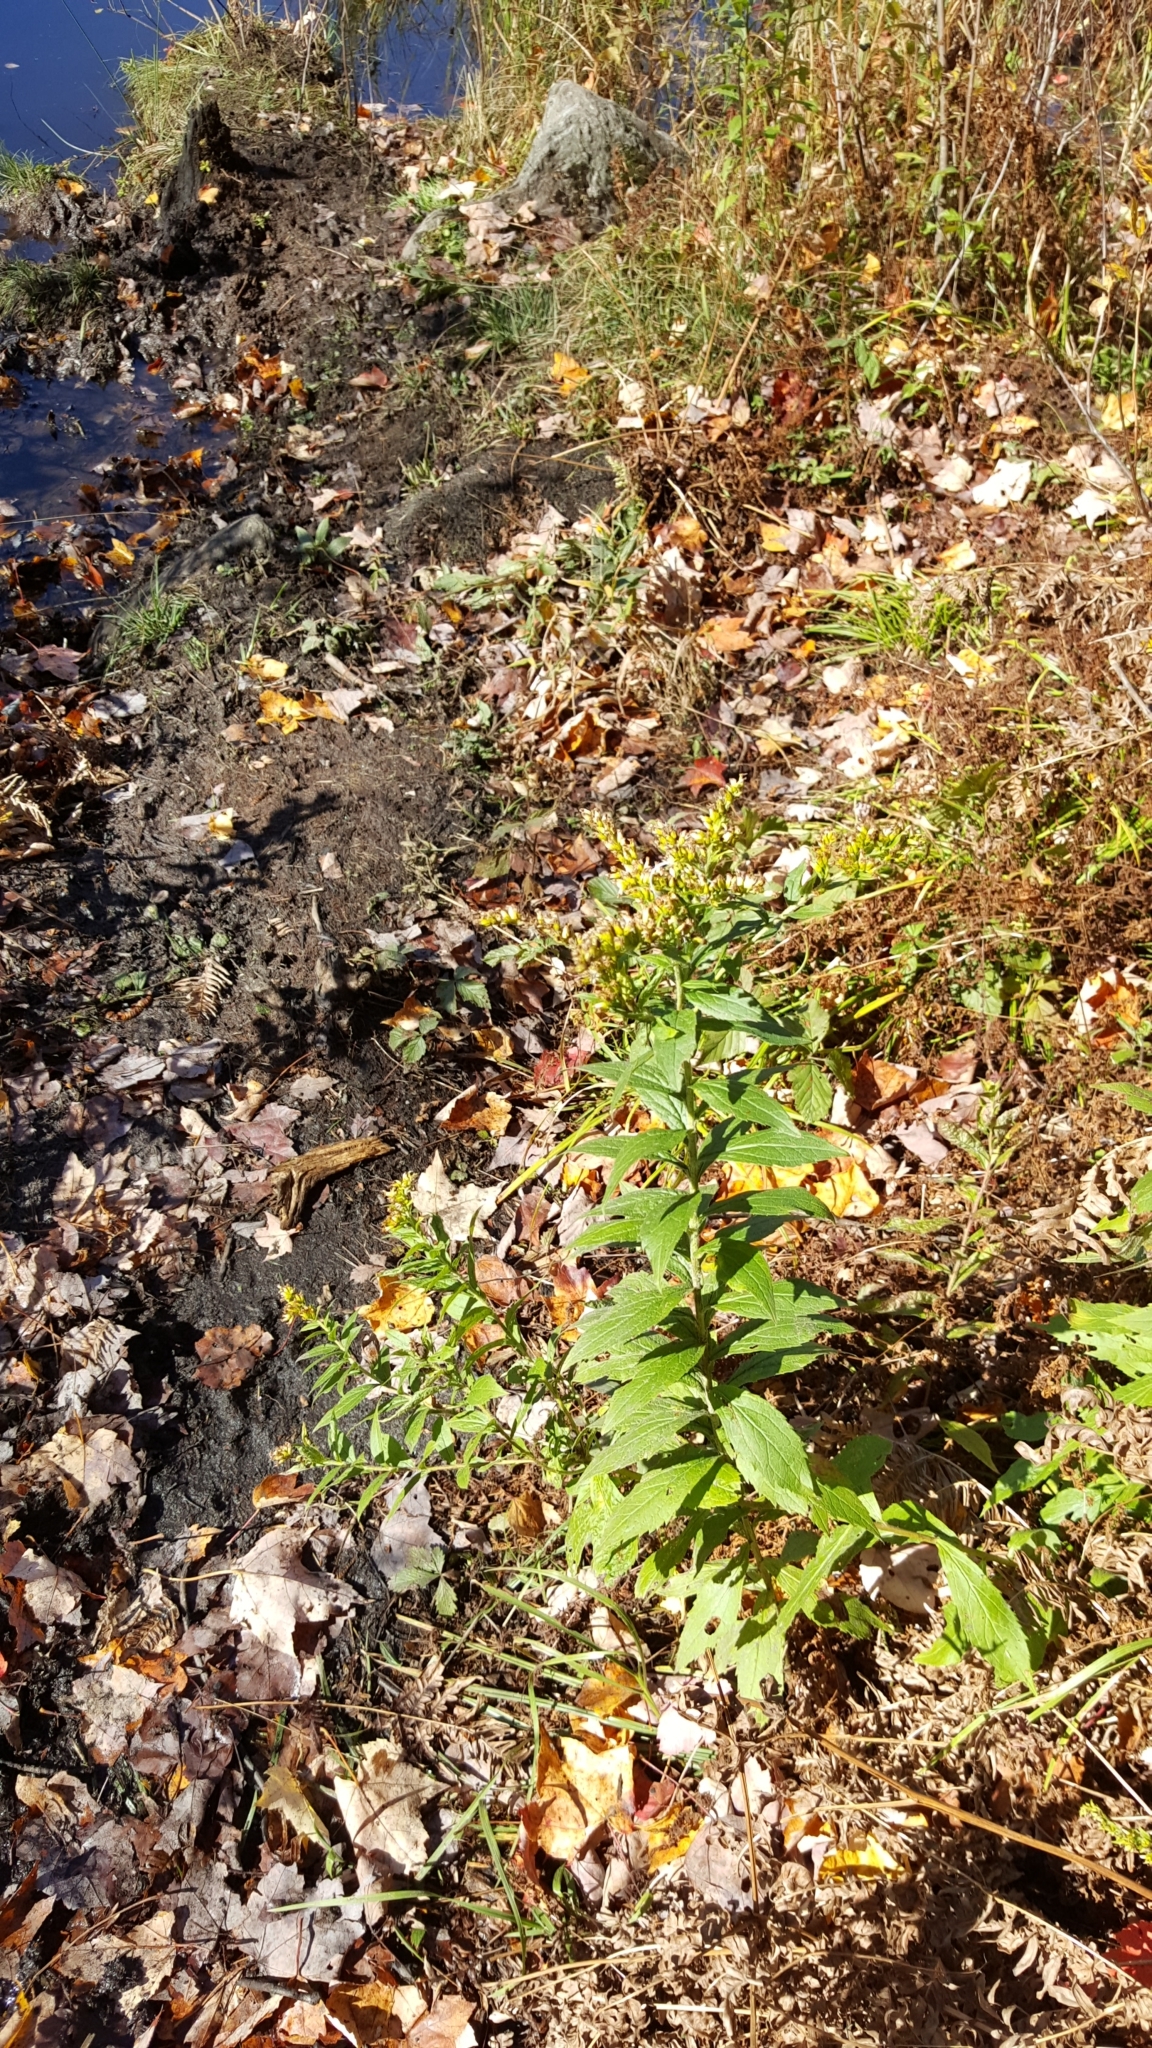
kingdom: Plantae
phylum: Tracheophyta
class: Magnoliopsida
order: Asterales
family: Asteraceae
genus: Solidago
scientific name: Solidago rugosa
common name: Rough-stemmed goldenrod
